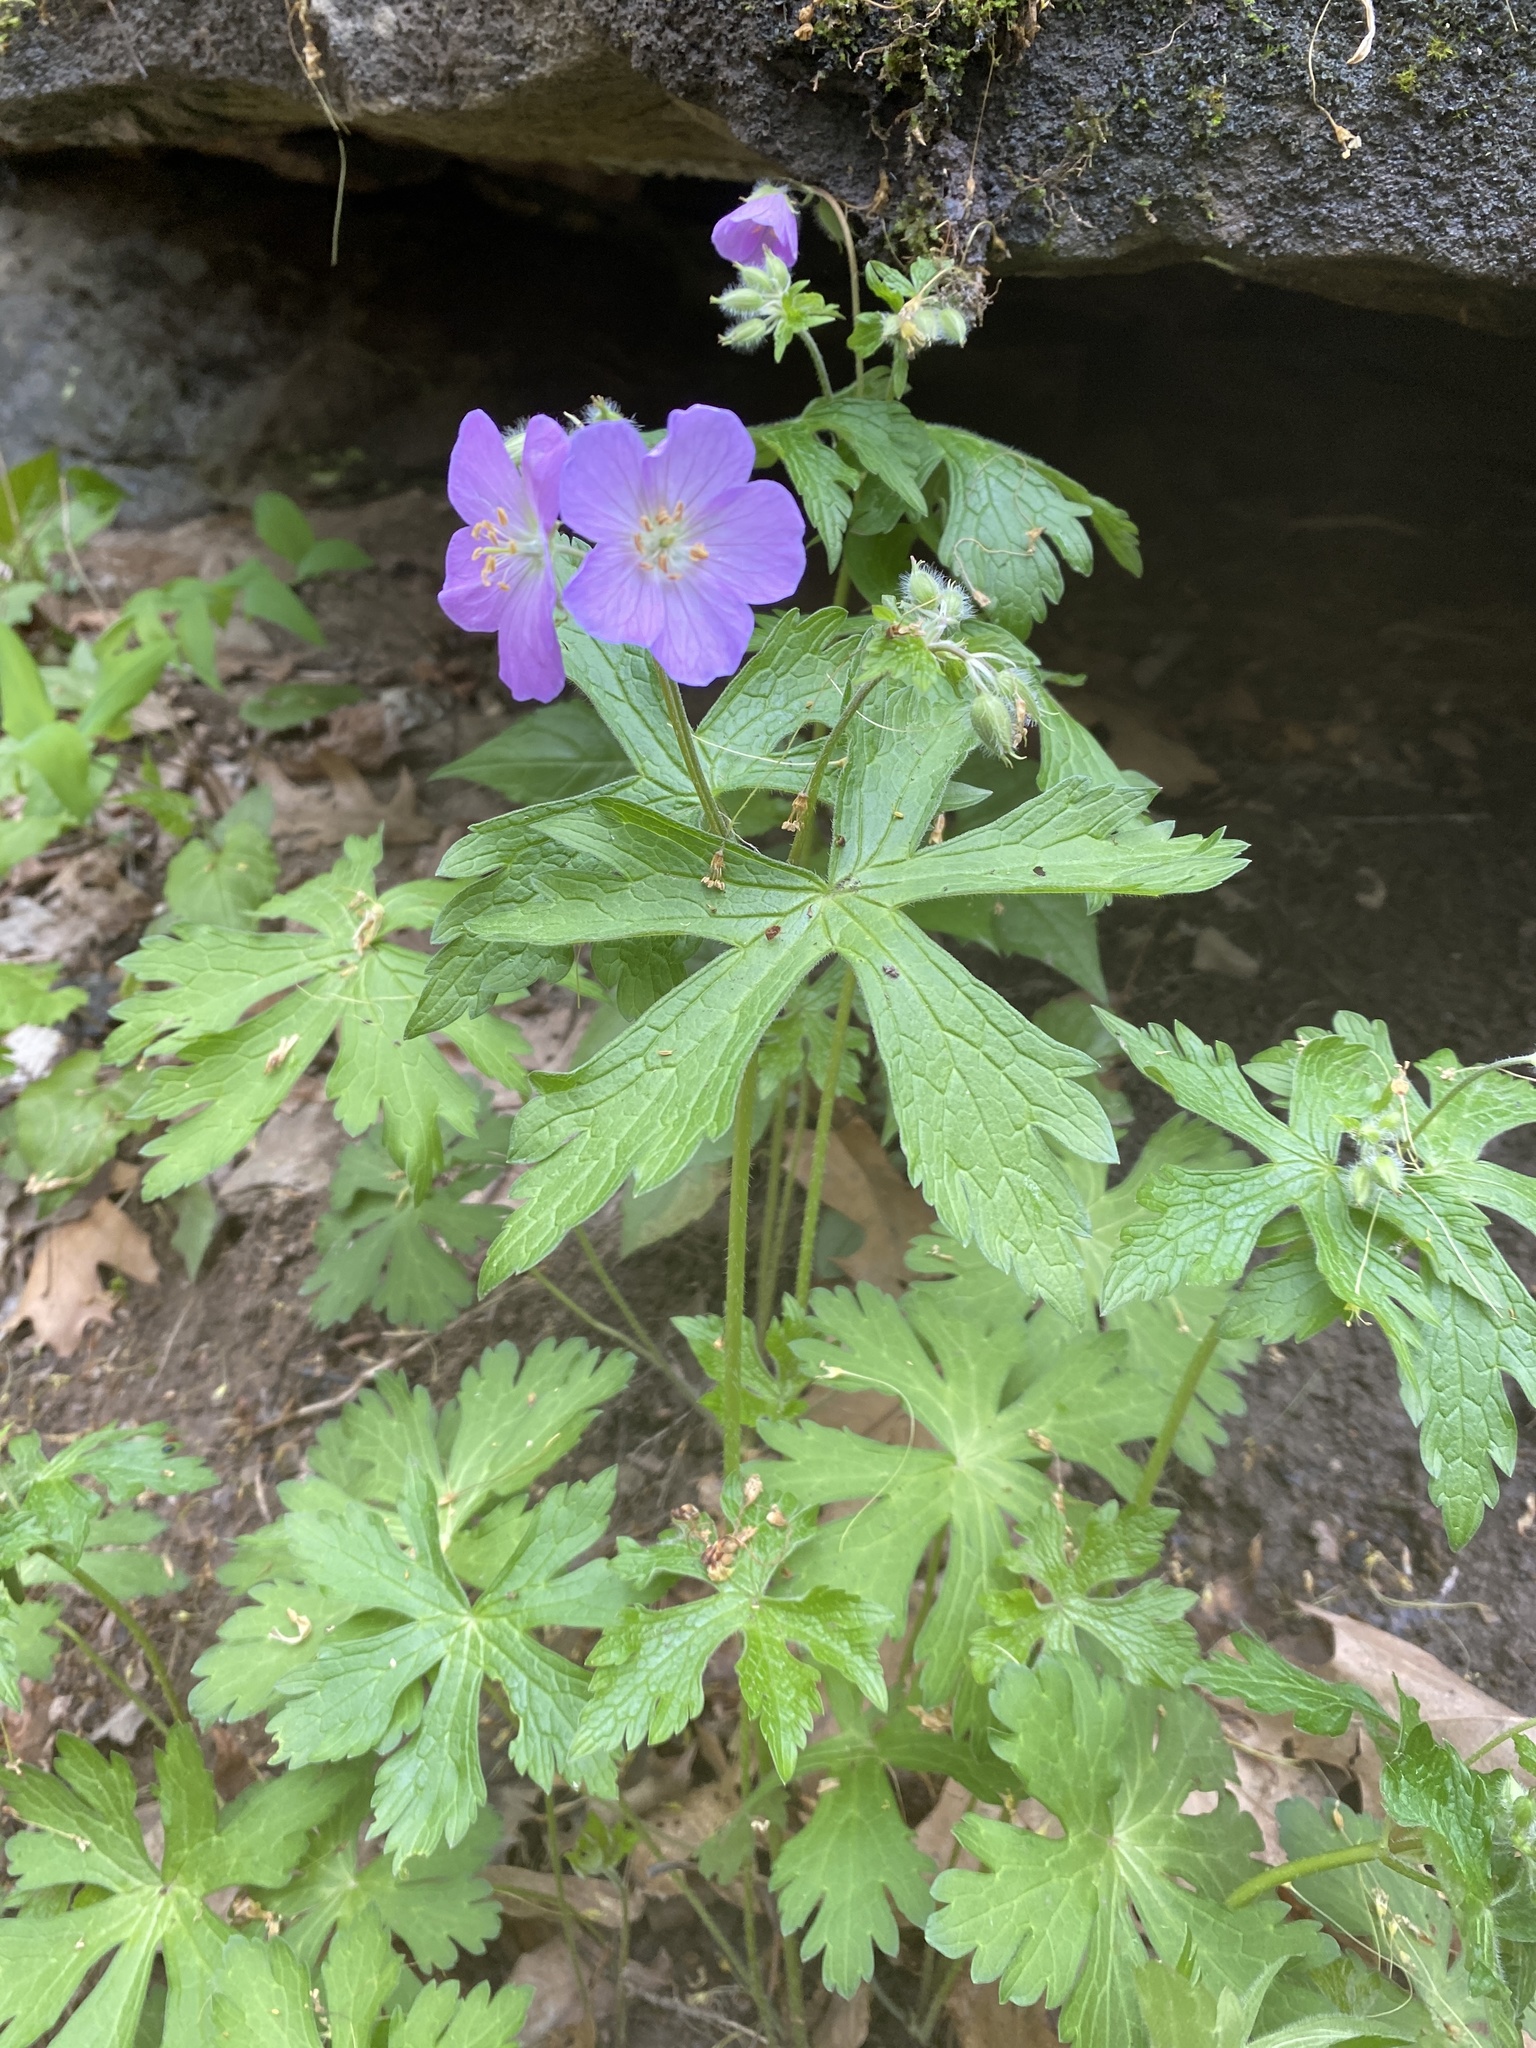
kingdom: Plantae
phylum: Tracheophyta
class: Magnoliopsida
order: Geraniales
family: Geraniaceae
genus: Geranium
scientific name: Geranium maculatum
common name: Spotted geranium
